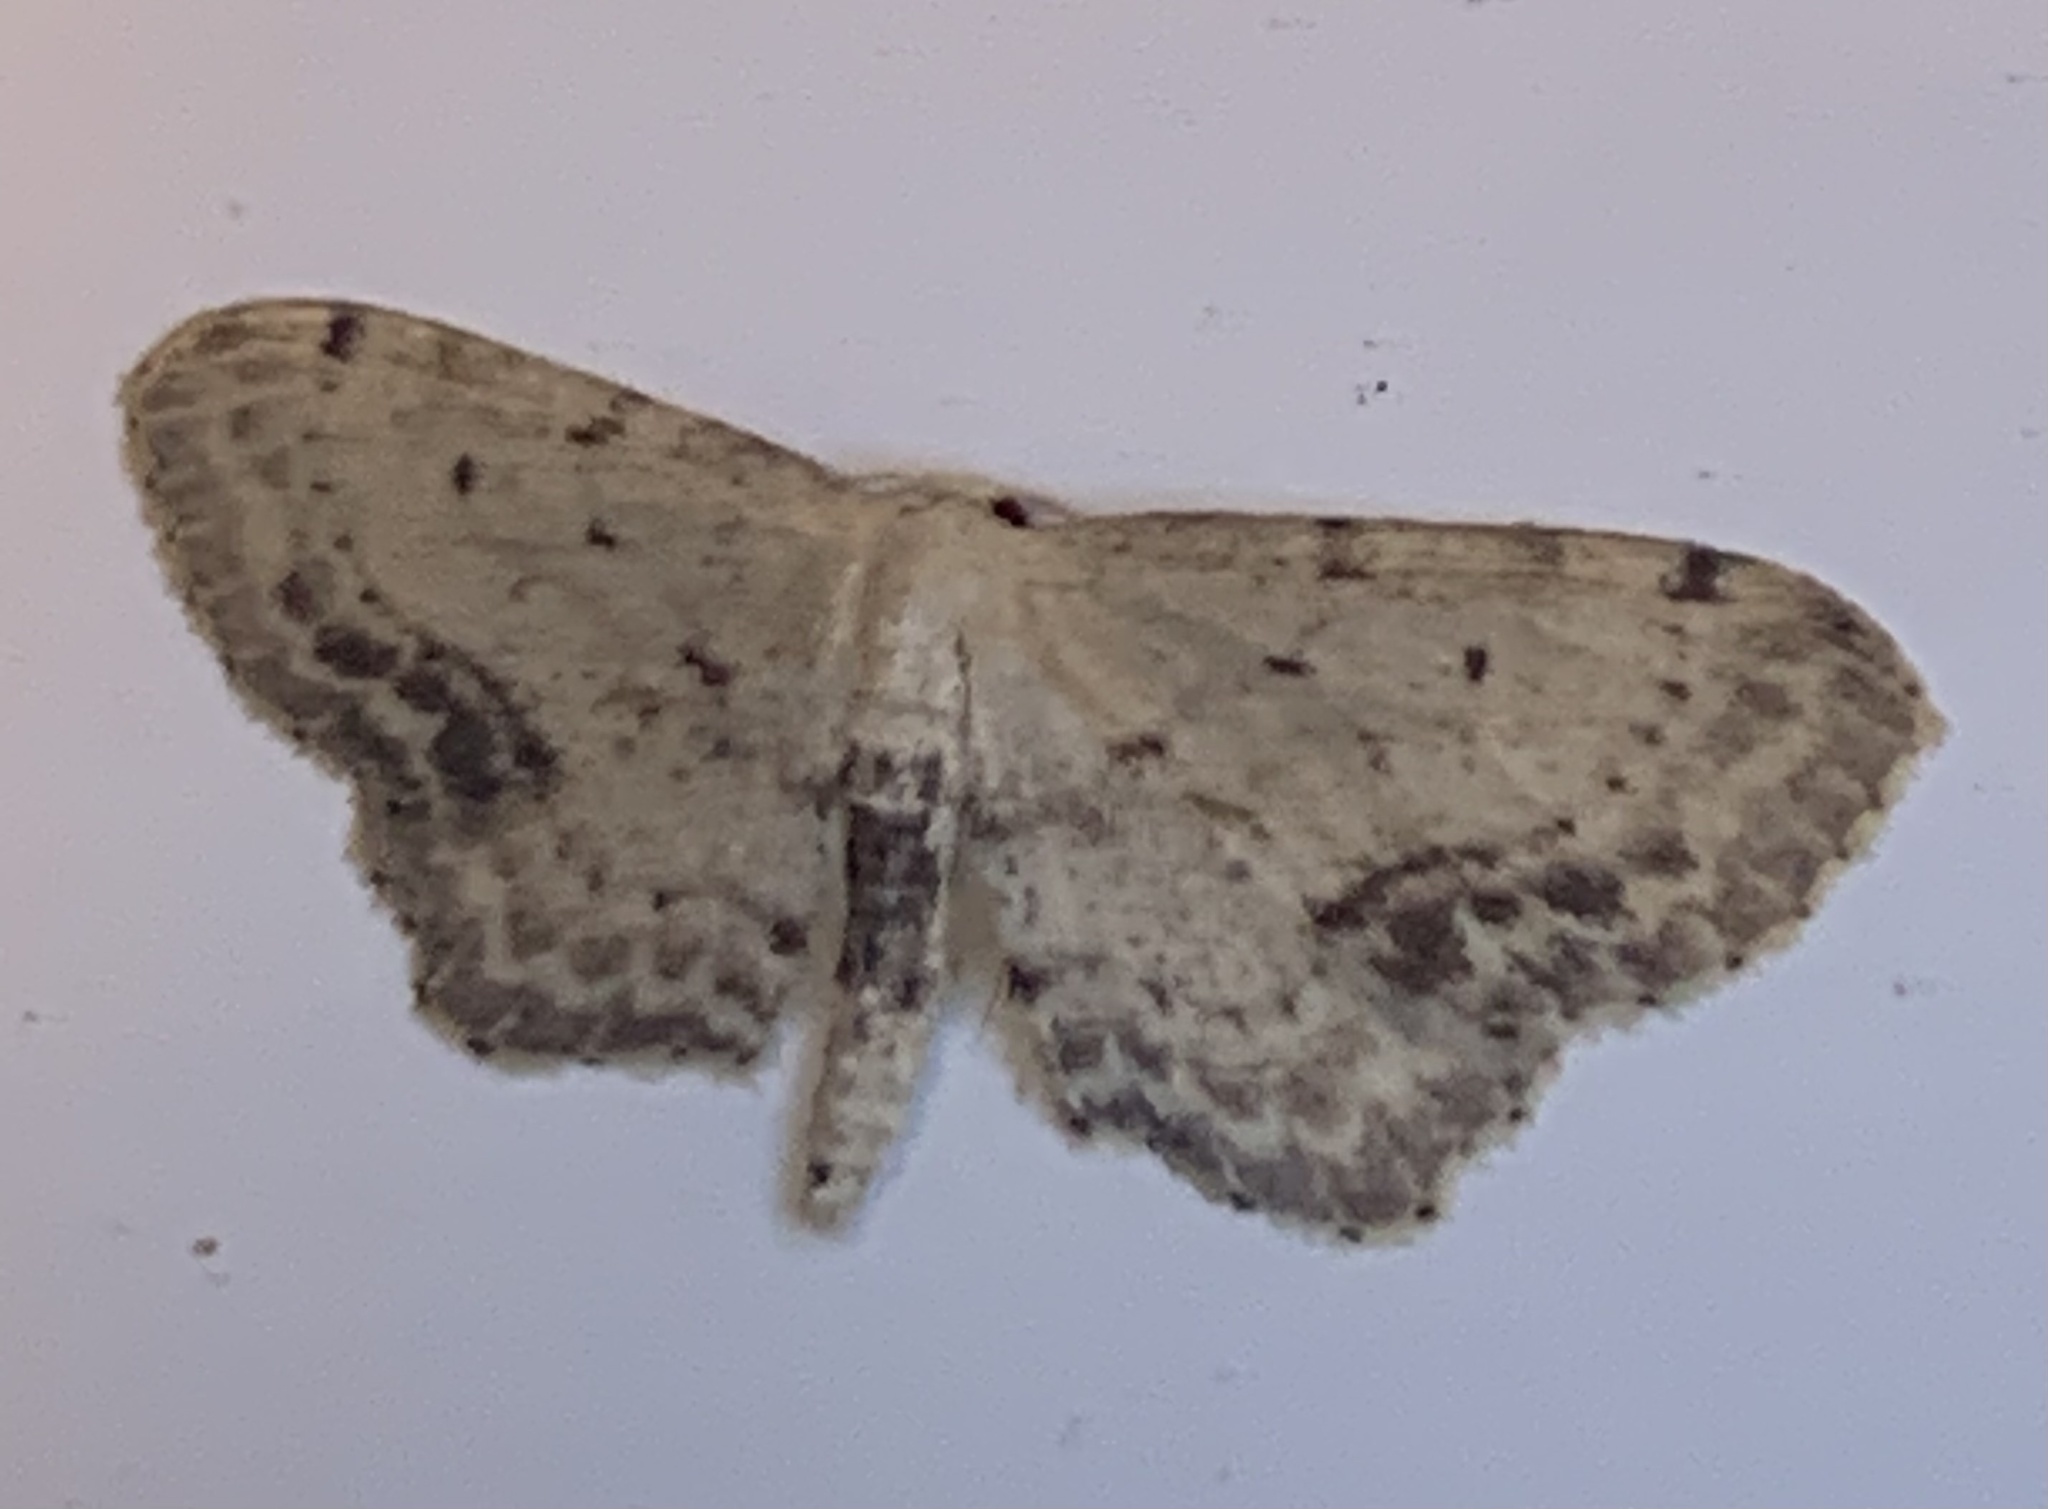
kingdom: Animalia
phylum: Arthropoda
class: Insecta
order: Lepidoptera
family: Geometridae
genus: Idaea
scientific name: Idaea dimidiata
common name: Single-dotted wave
